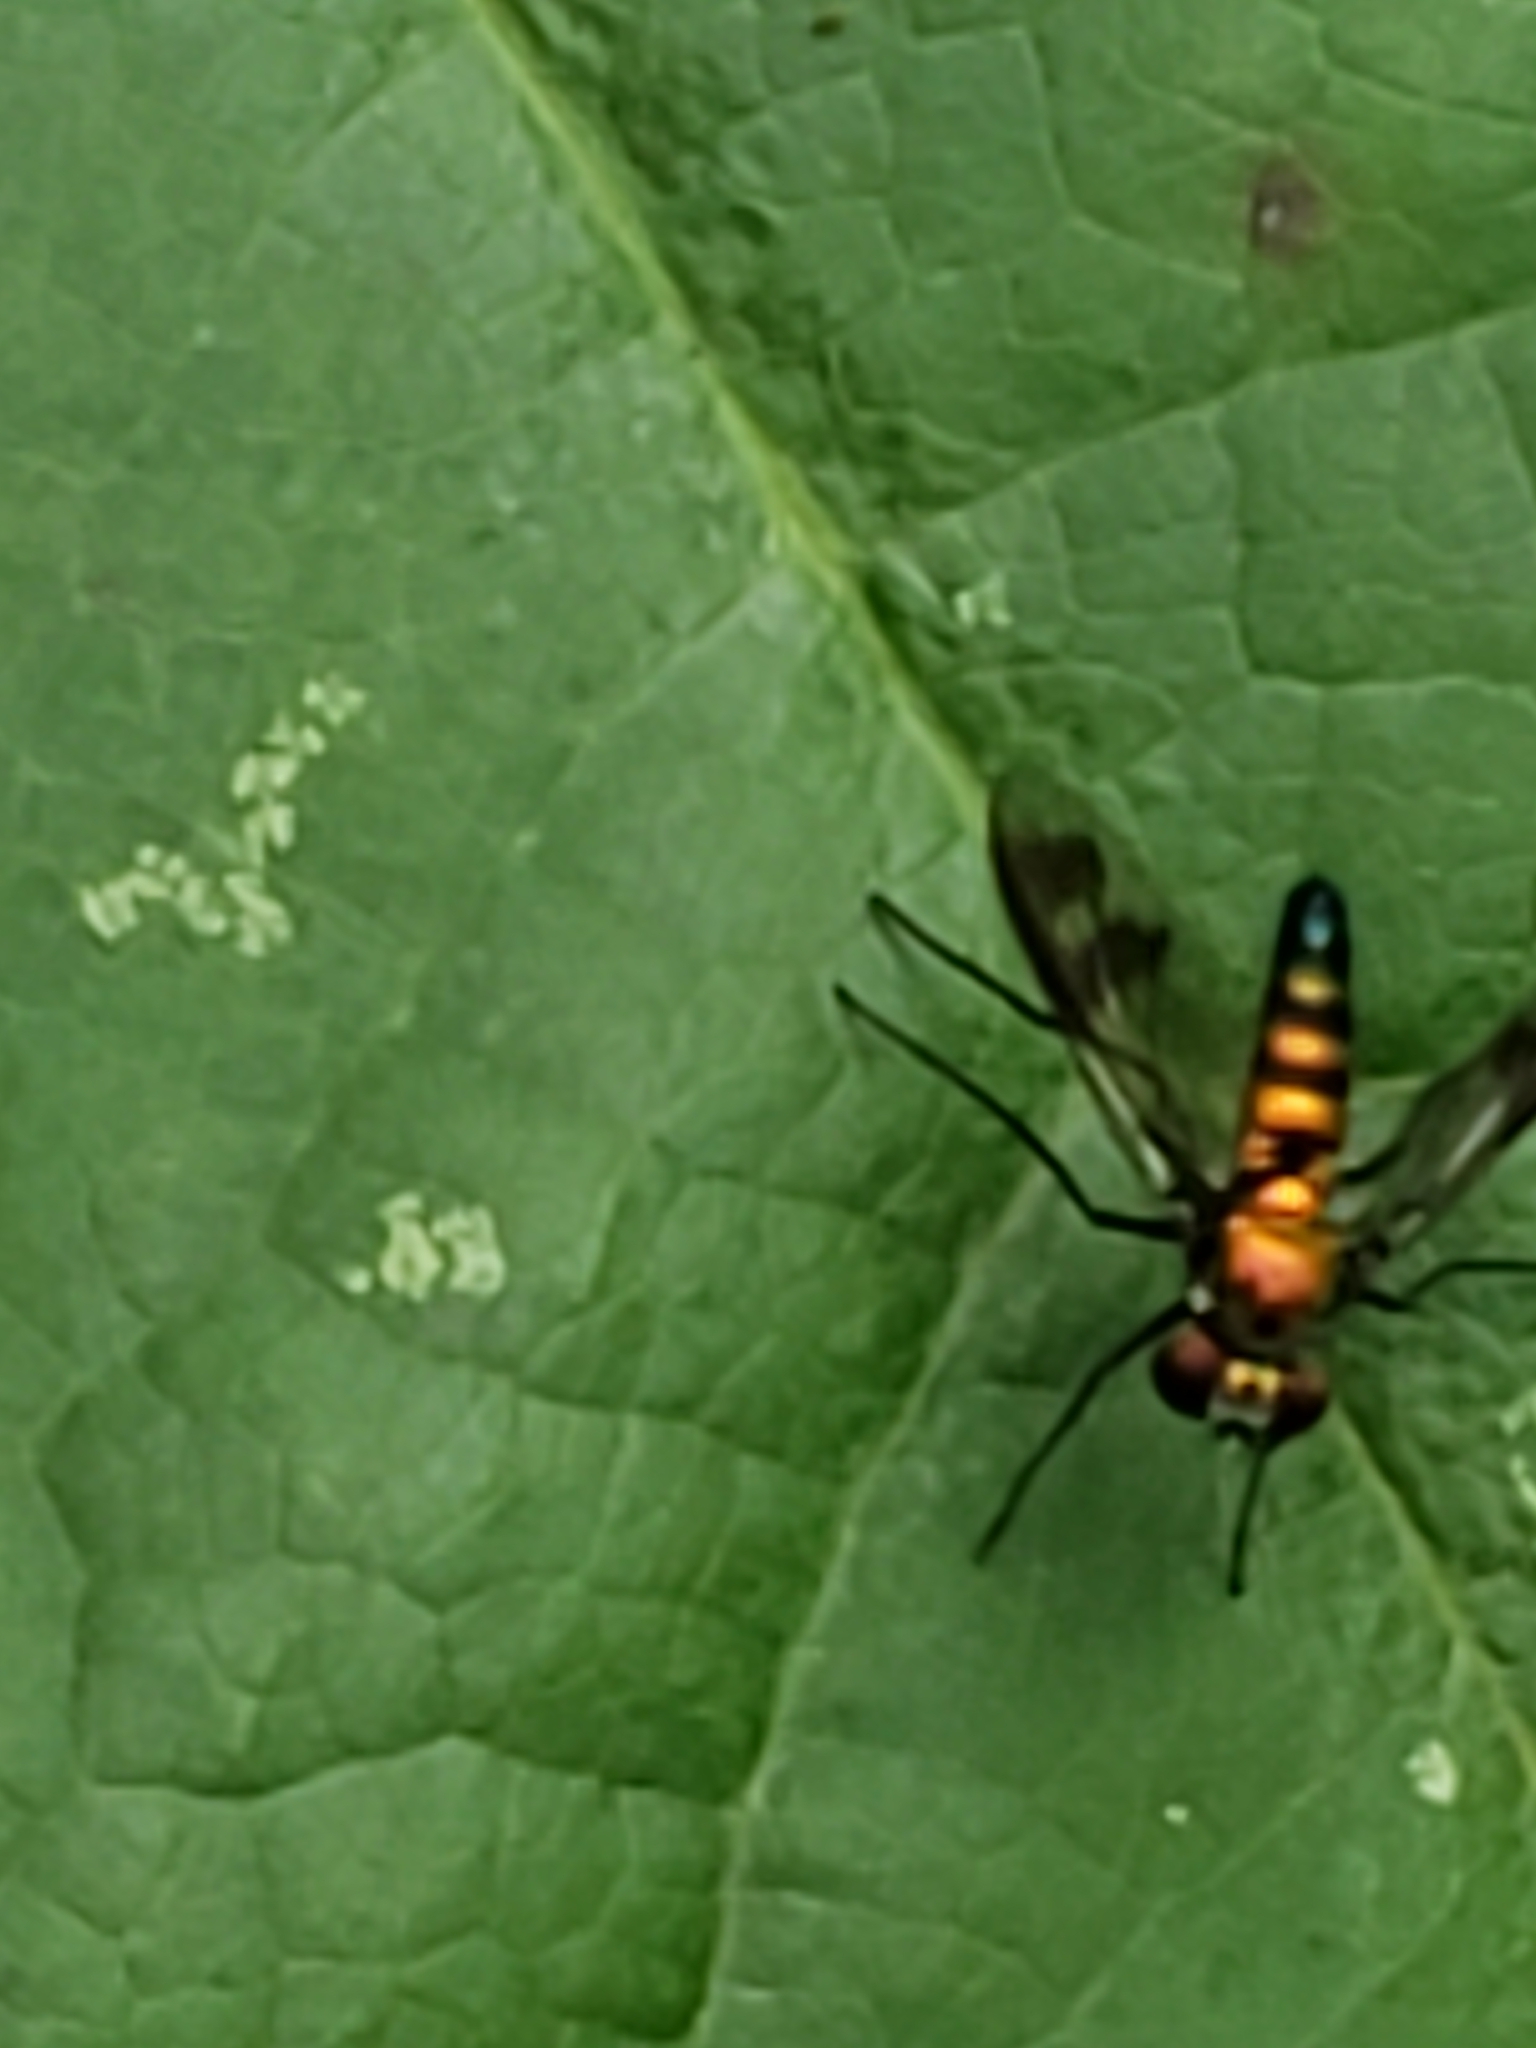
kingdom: Animalia
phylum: Arthropoda
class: Insecta
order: Diptera
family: Dolichopodidae
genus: Condylostylus
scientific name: Condylostylus patibulatus
